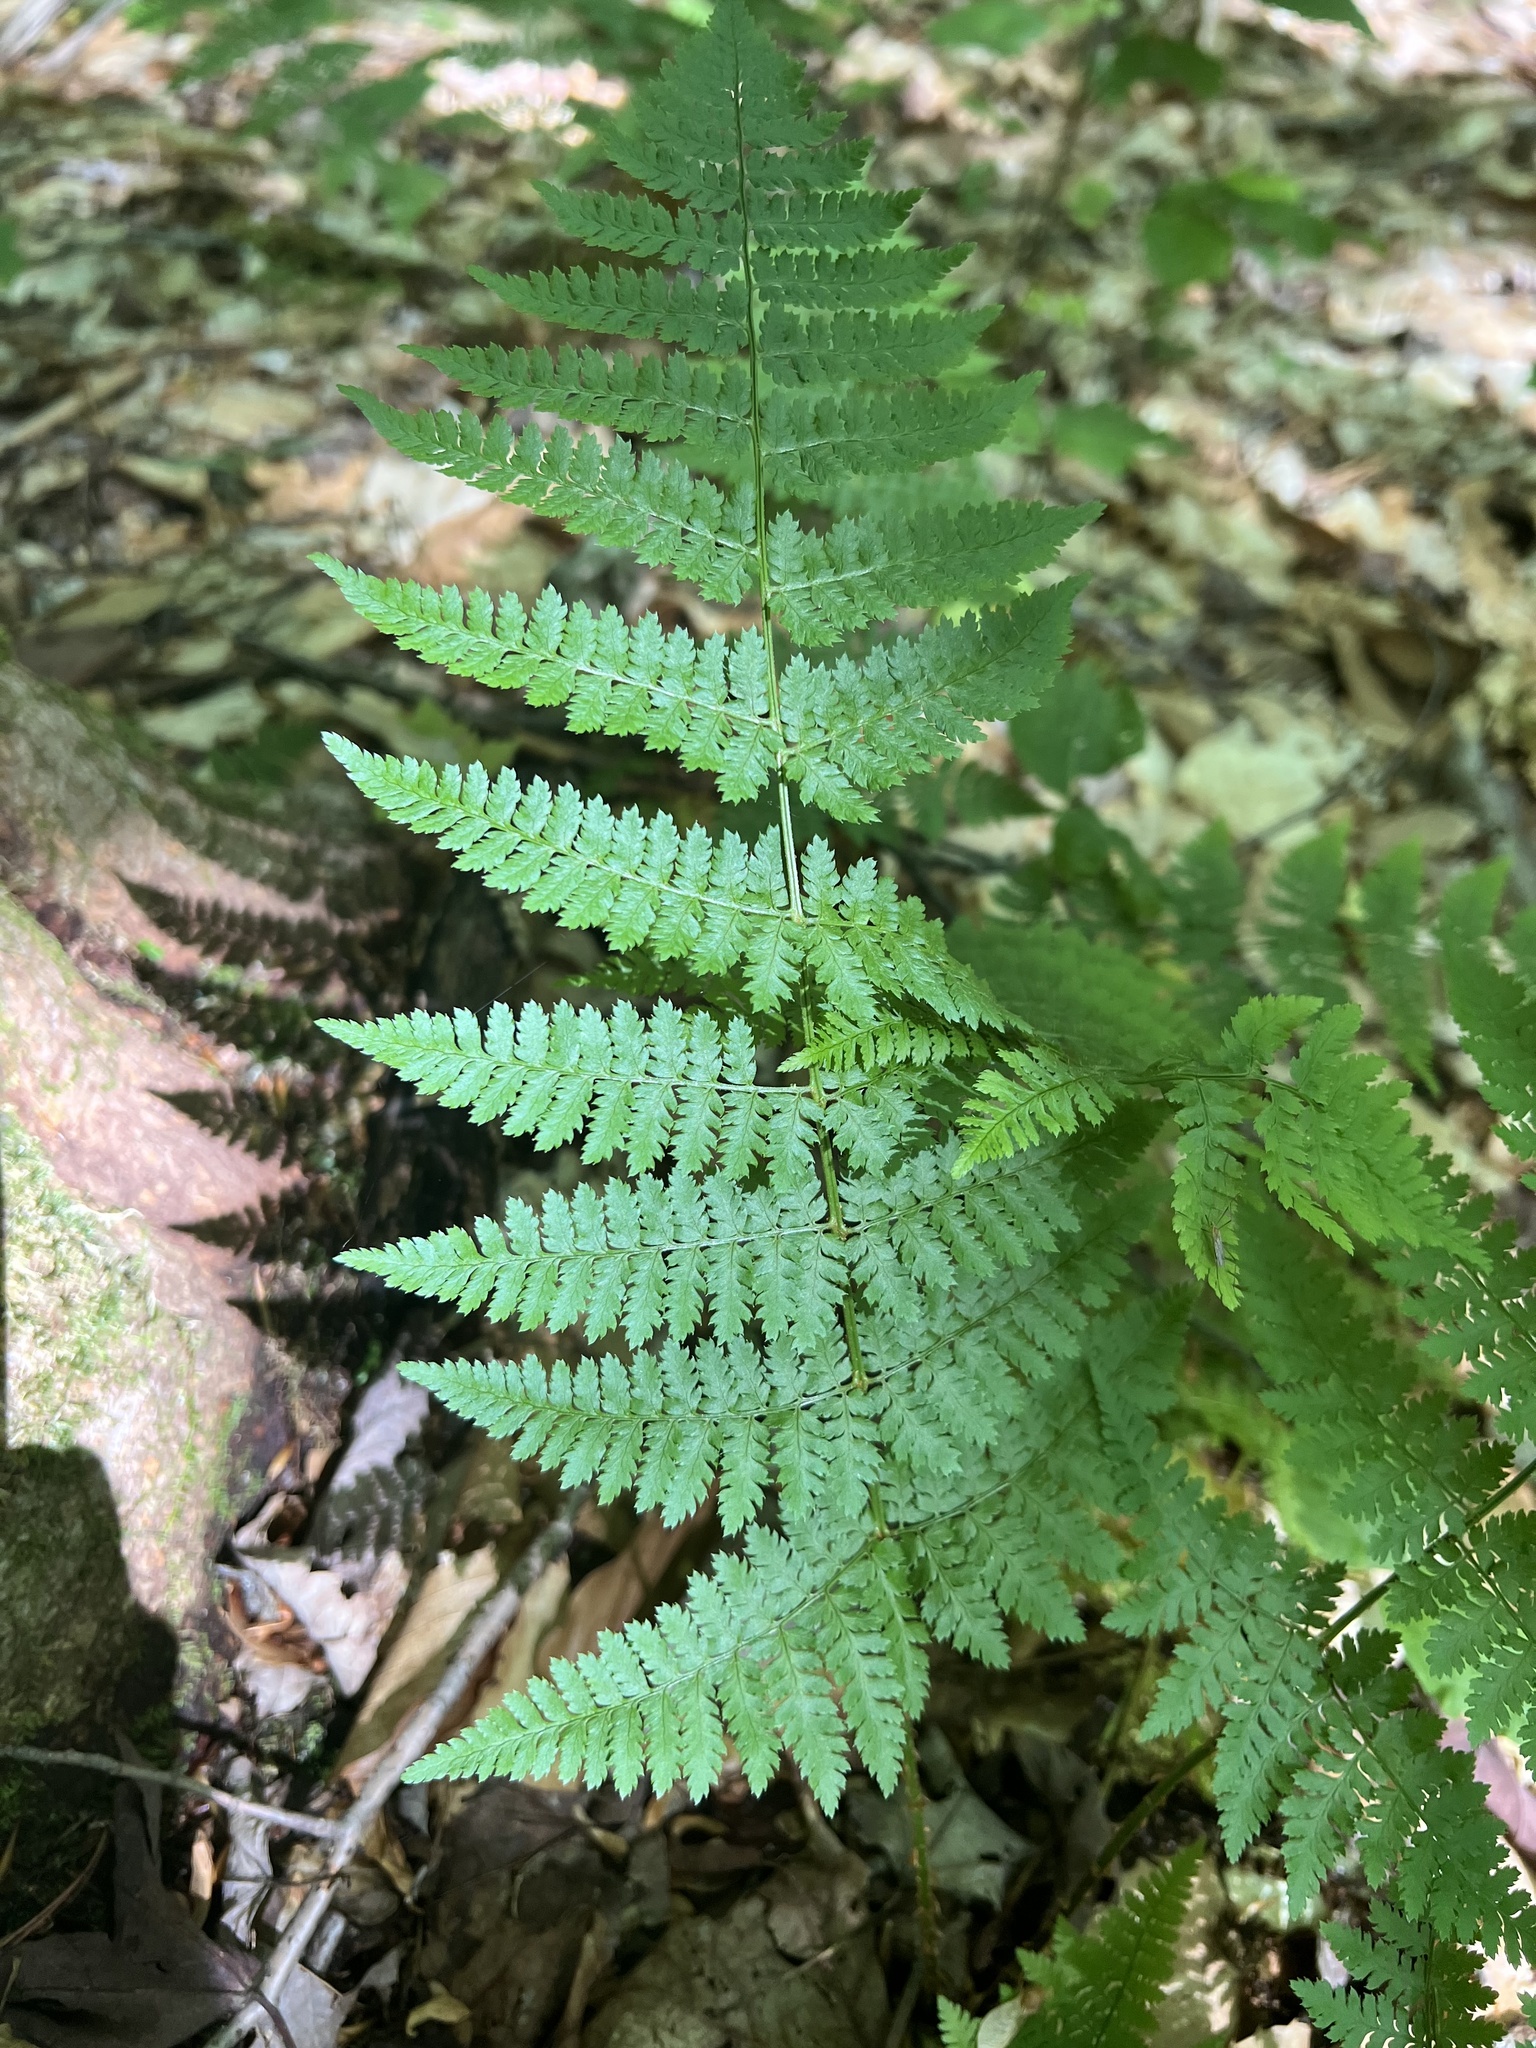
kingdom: Plantae
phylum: Tracheophyta
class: Polypodiopsida
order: Polypodiales
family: Dryopteridaceae
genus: Dryopteris
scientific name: Dryopteris intermedia
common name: Evergreen wood fern
